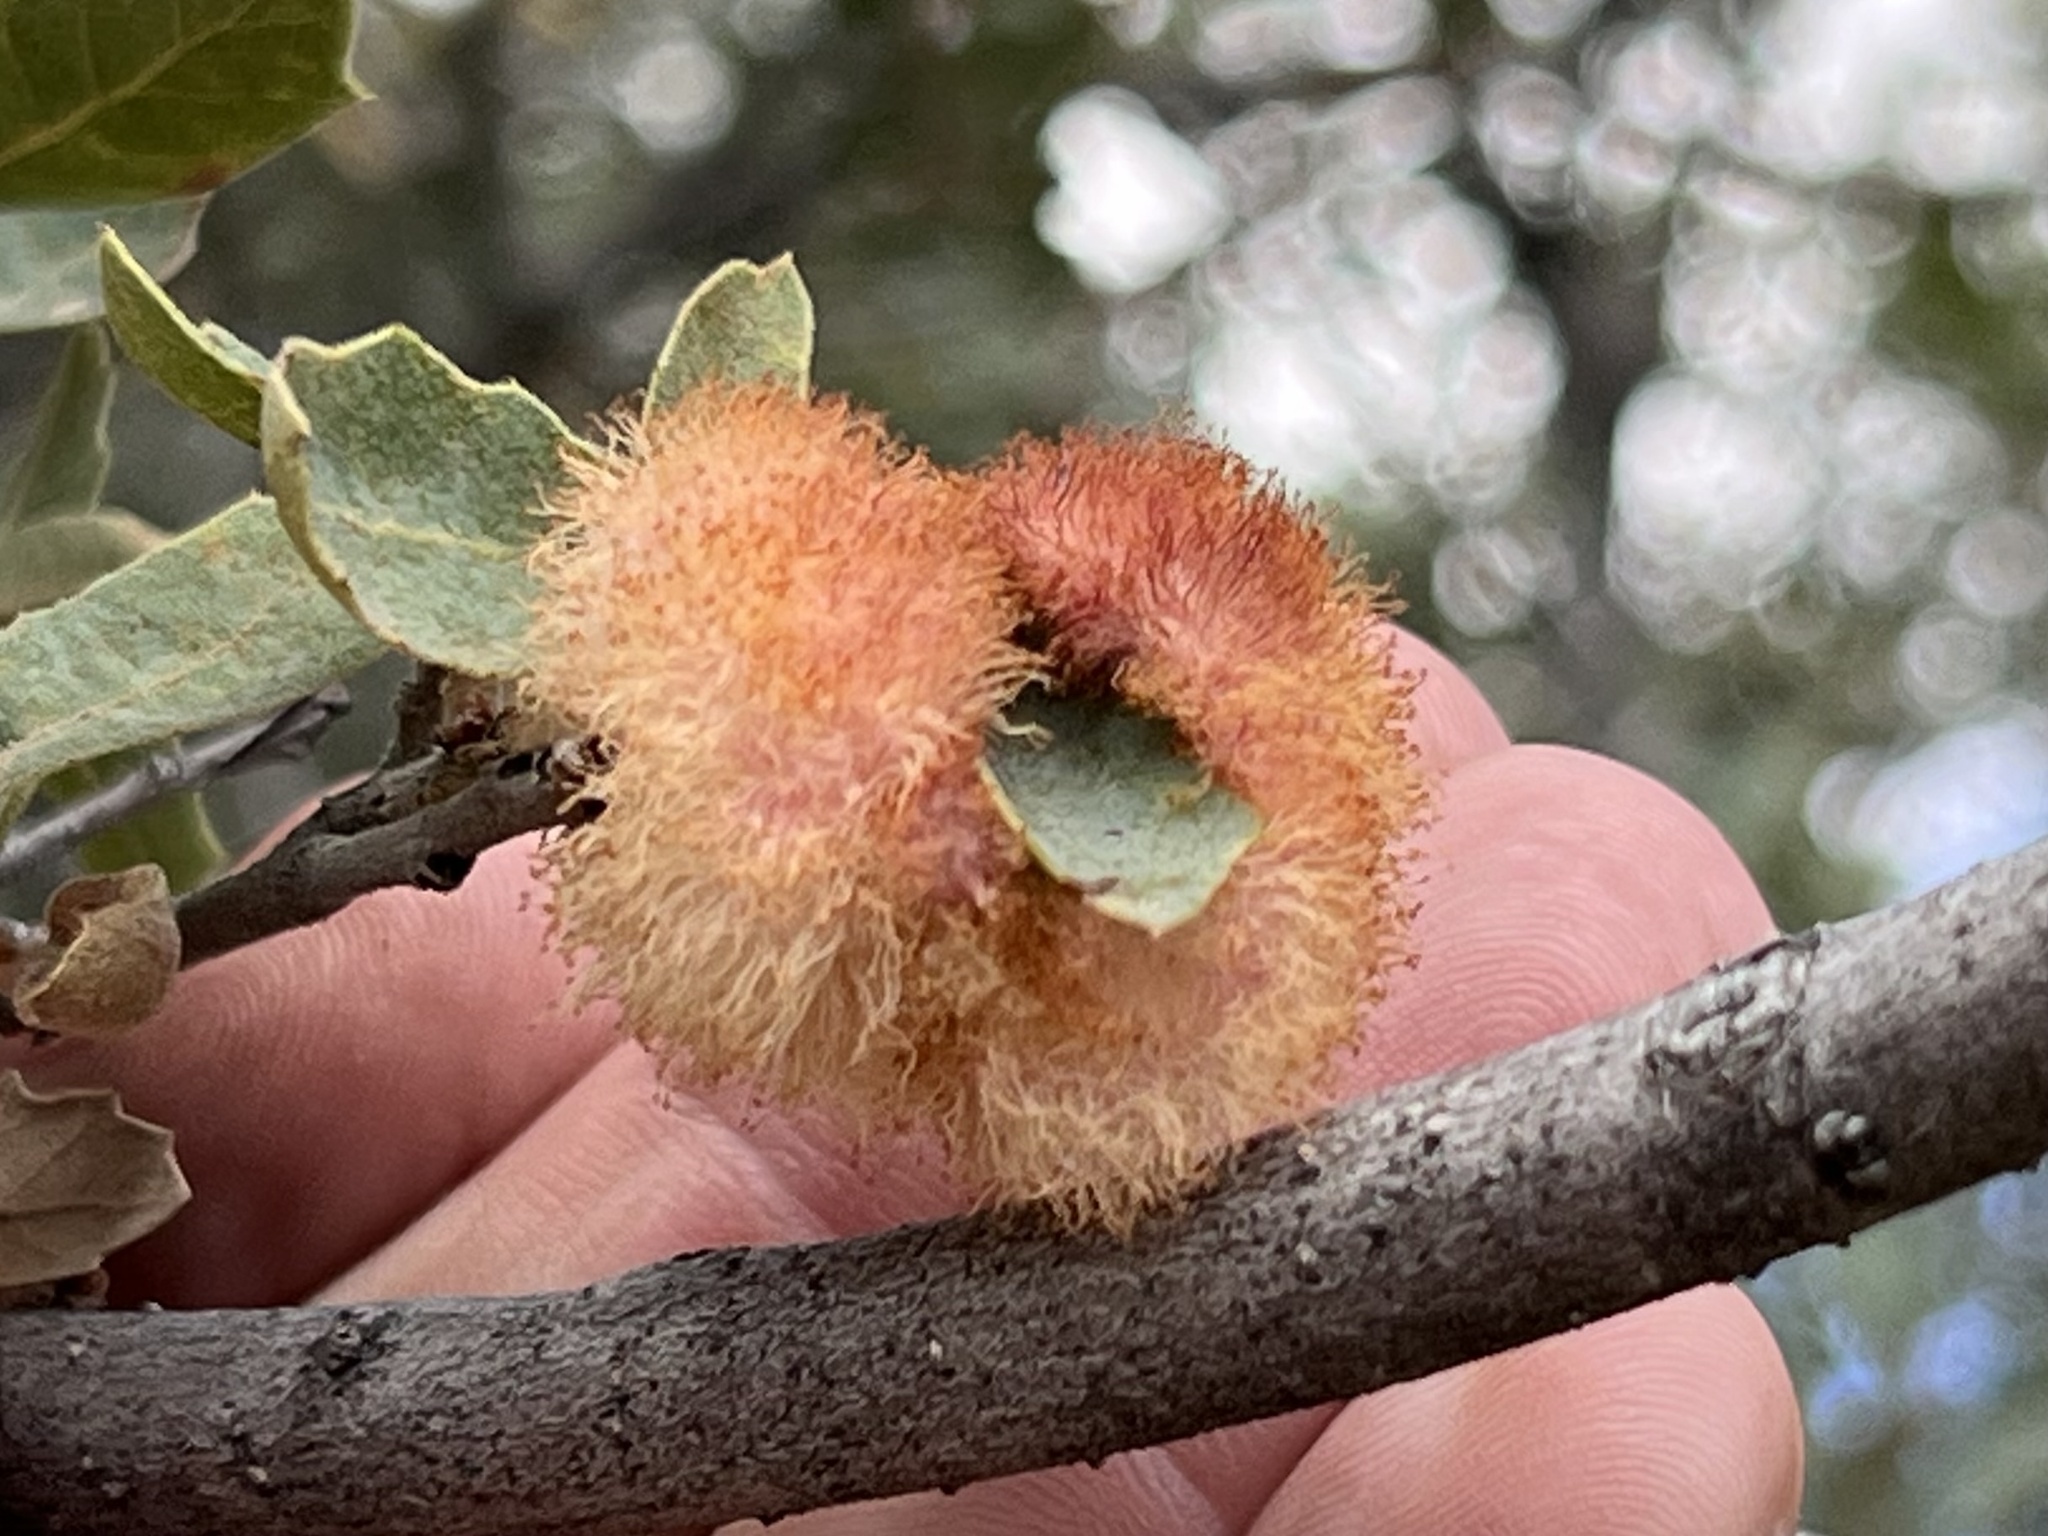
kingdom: Animalia
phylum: Arthropoda
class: Insecta
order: Hymenoptera
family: Cynipidae
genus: Andricus
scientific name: Andricus
